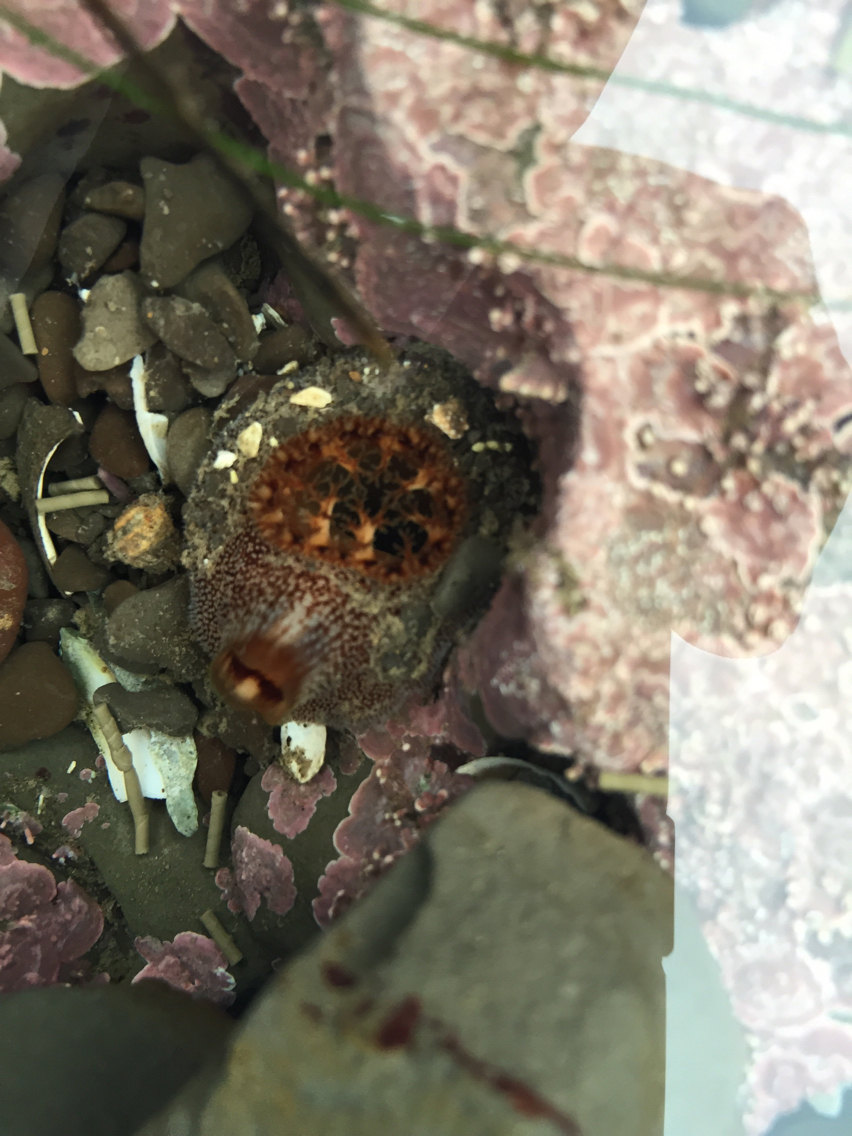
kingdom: Animalia
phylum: Mollusca
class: Bivalvia
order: Myida
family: Pholadidae
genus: Parapholas
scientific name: Parapholas californica
